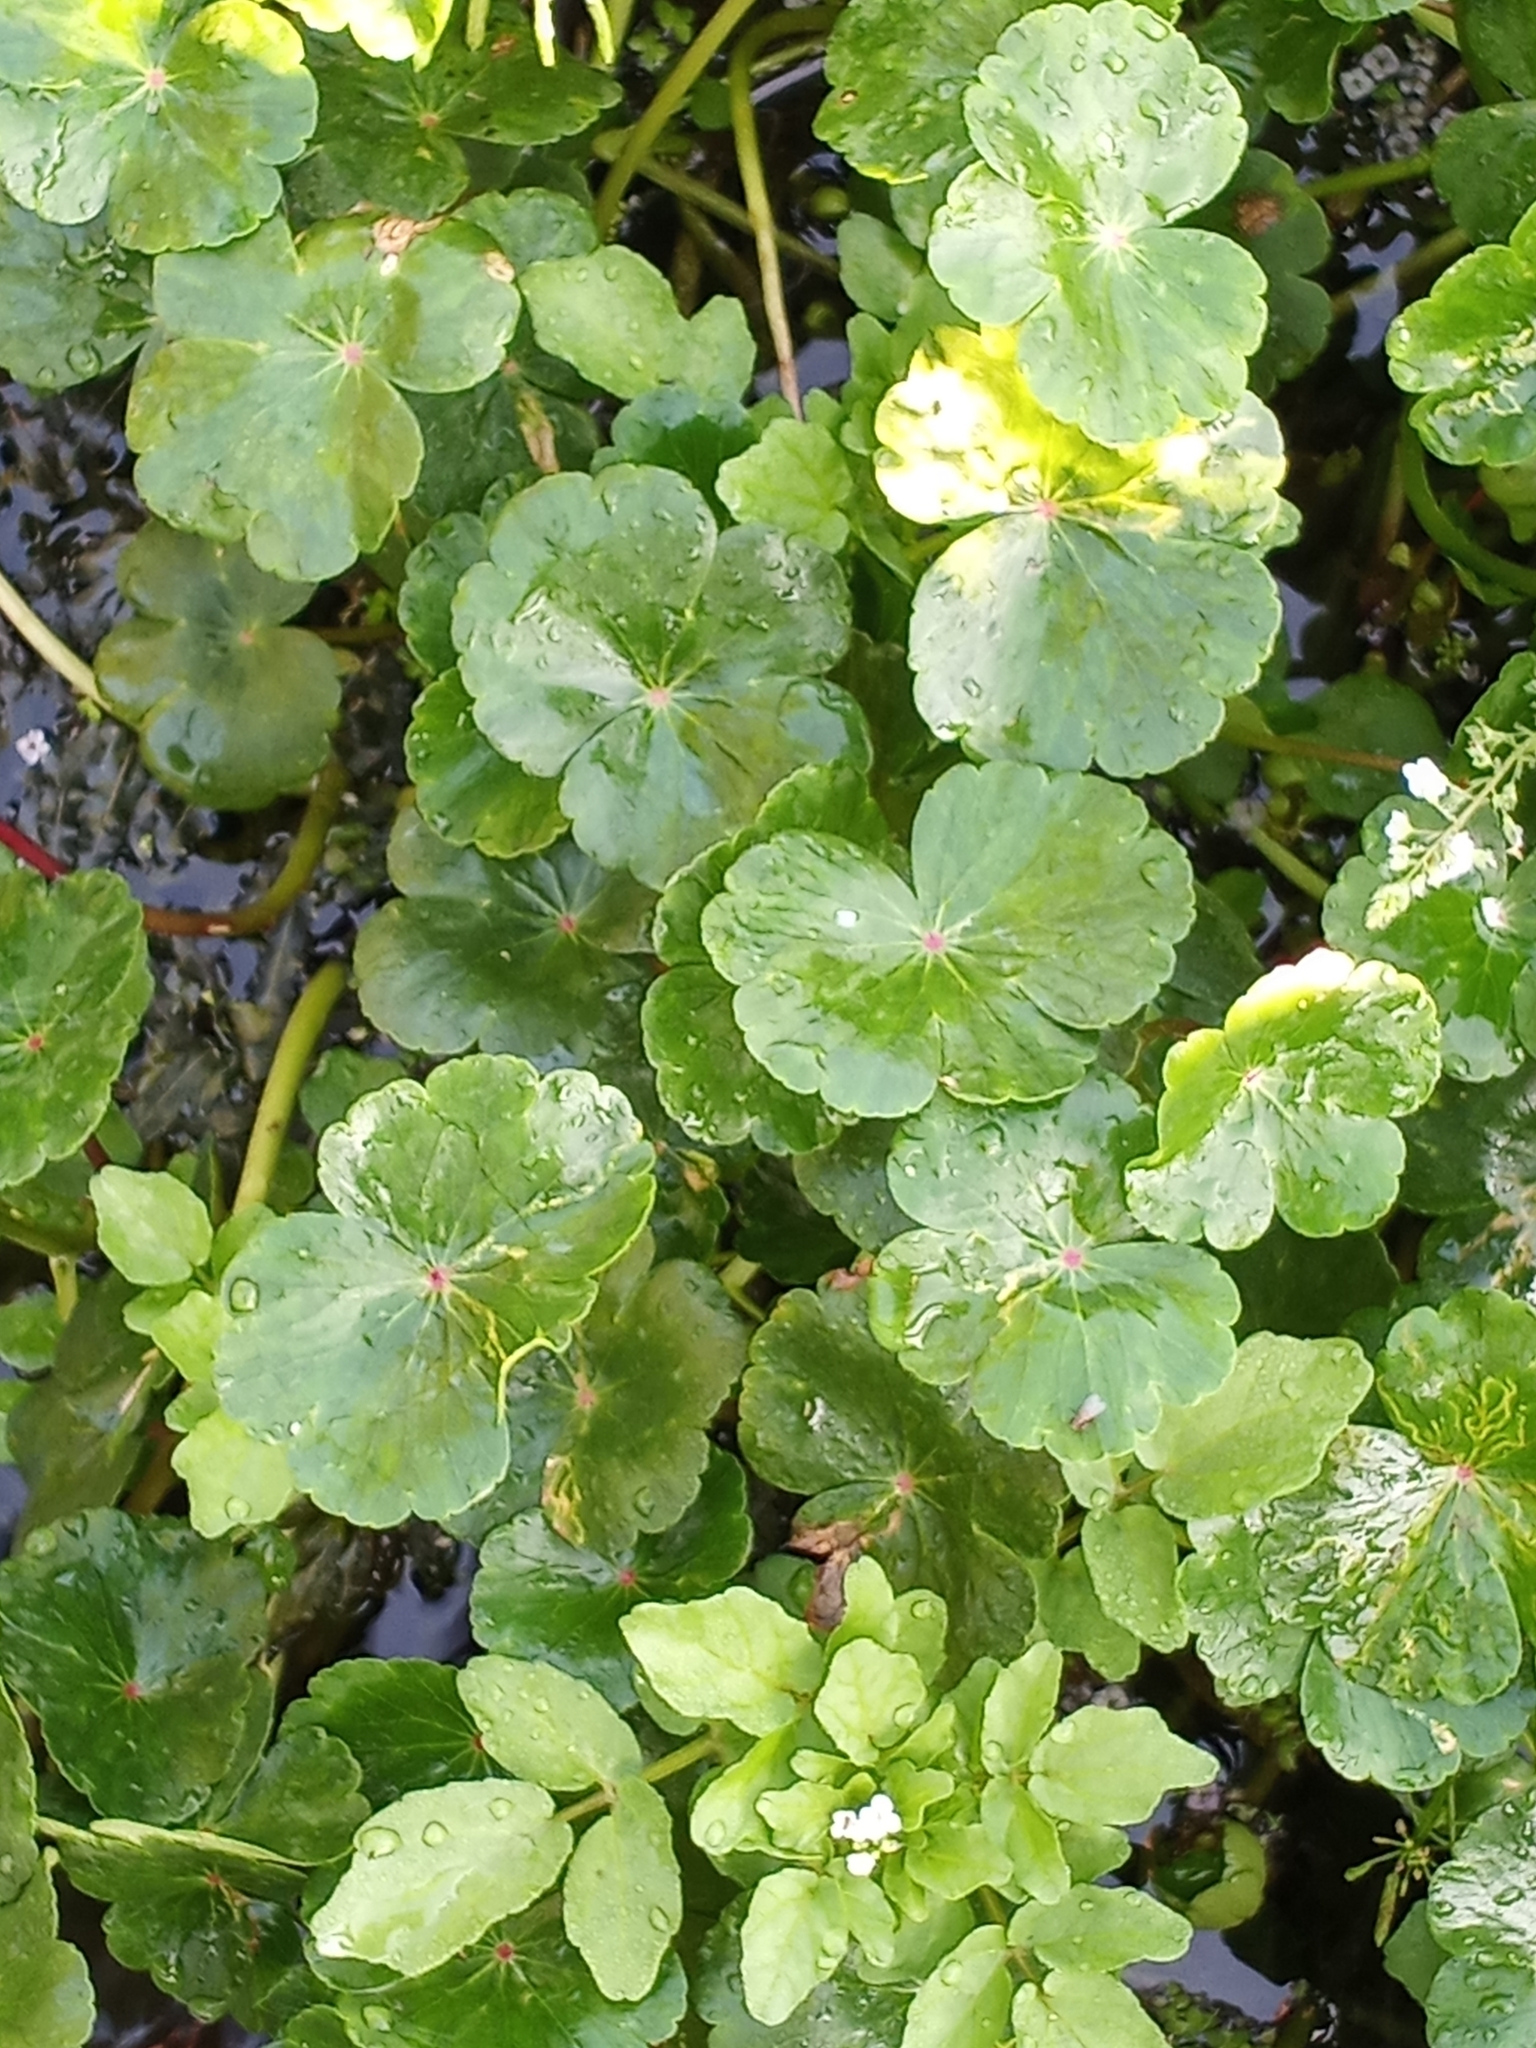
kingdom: Plantae
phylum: Tracheophyta
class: Magnoliopsida
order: Apiales
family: Araliaceae
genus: Hydrocotyle
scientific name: Hydrocotyle ranunculoides
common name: Floating pennywort
